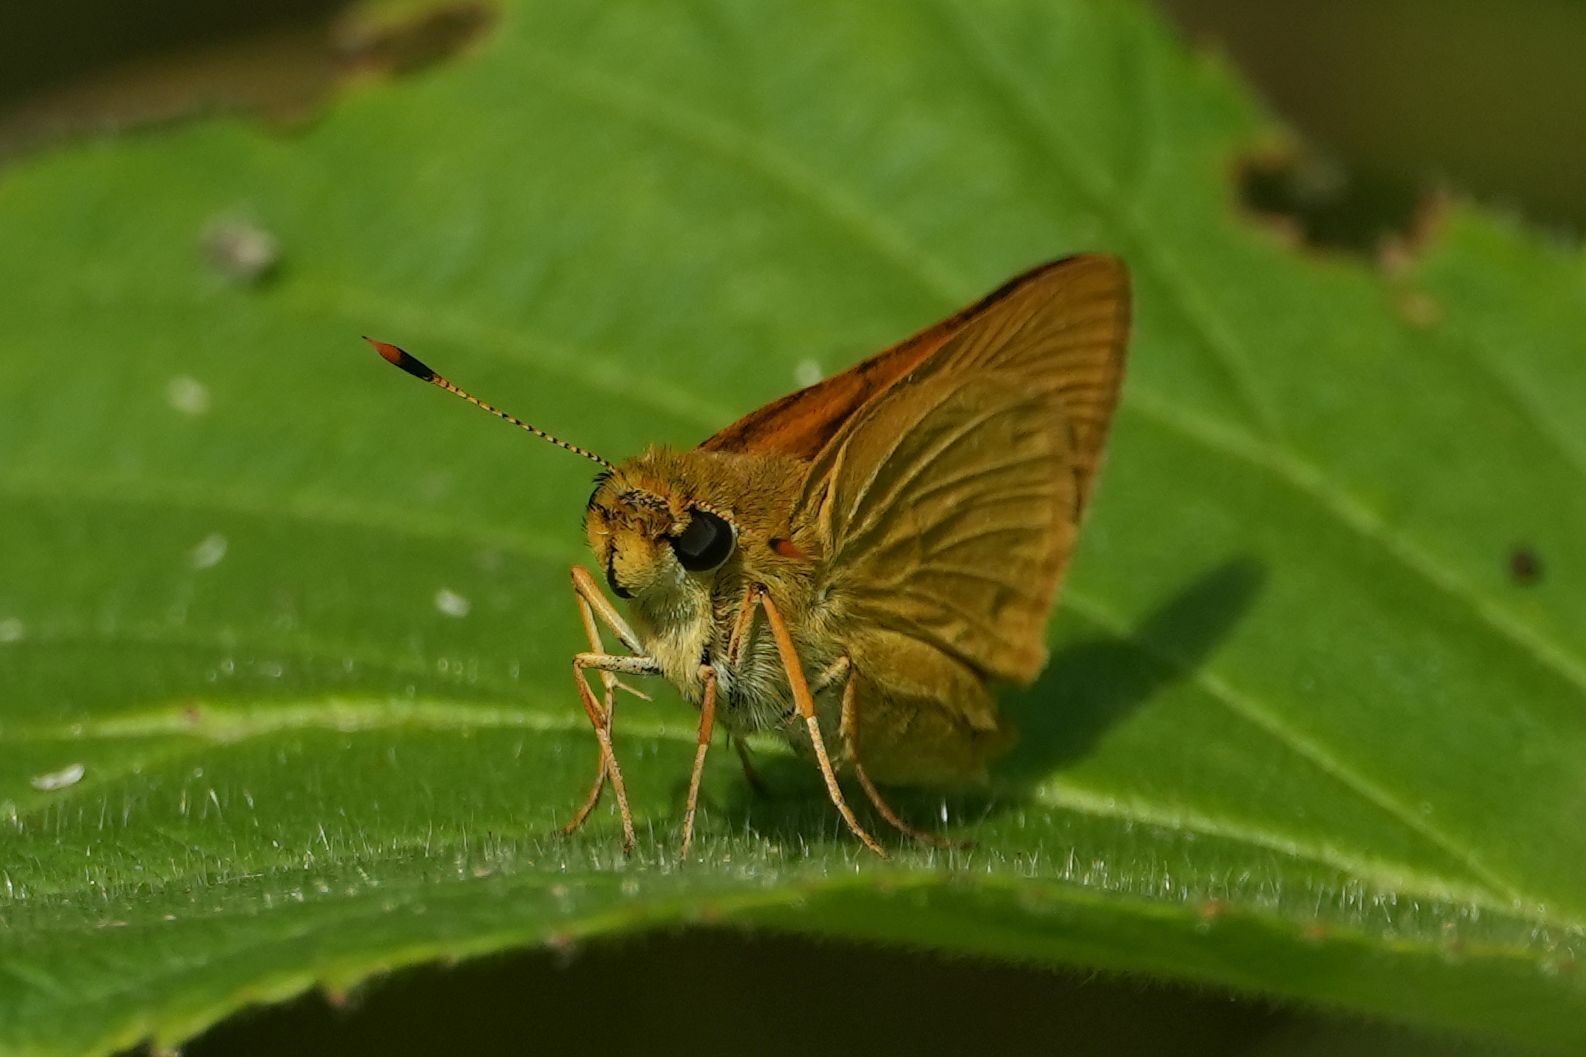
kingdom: Animalia
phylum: Arthropoda
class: Insecta
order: Lepidoptera
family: Hesperiidae
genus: Atrytone
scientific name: Atrytone delaware
